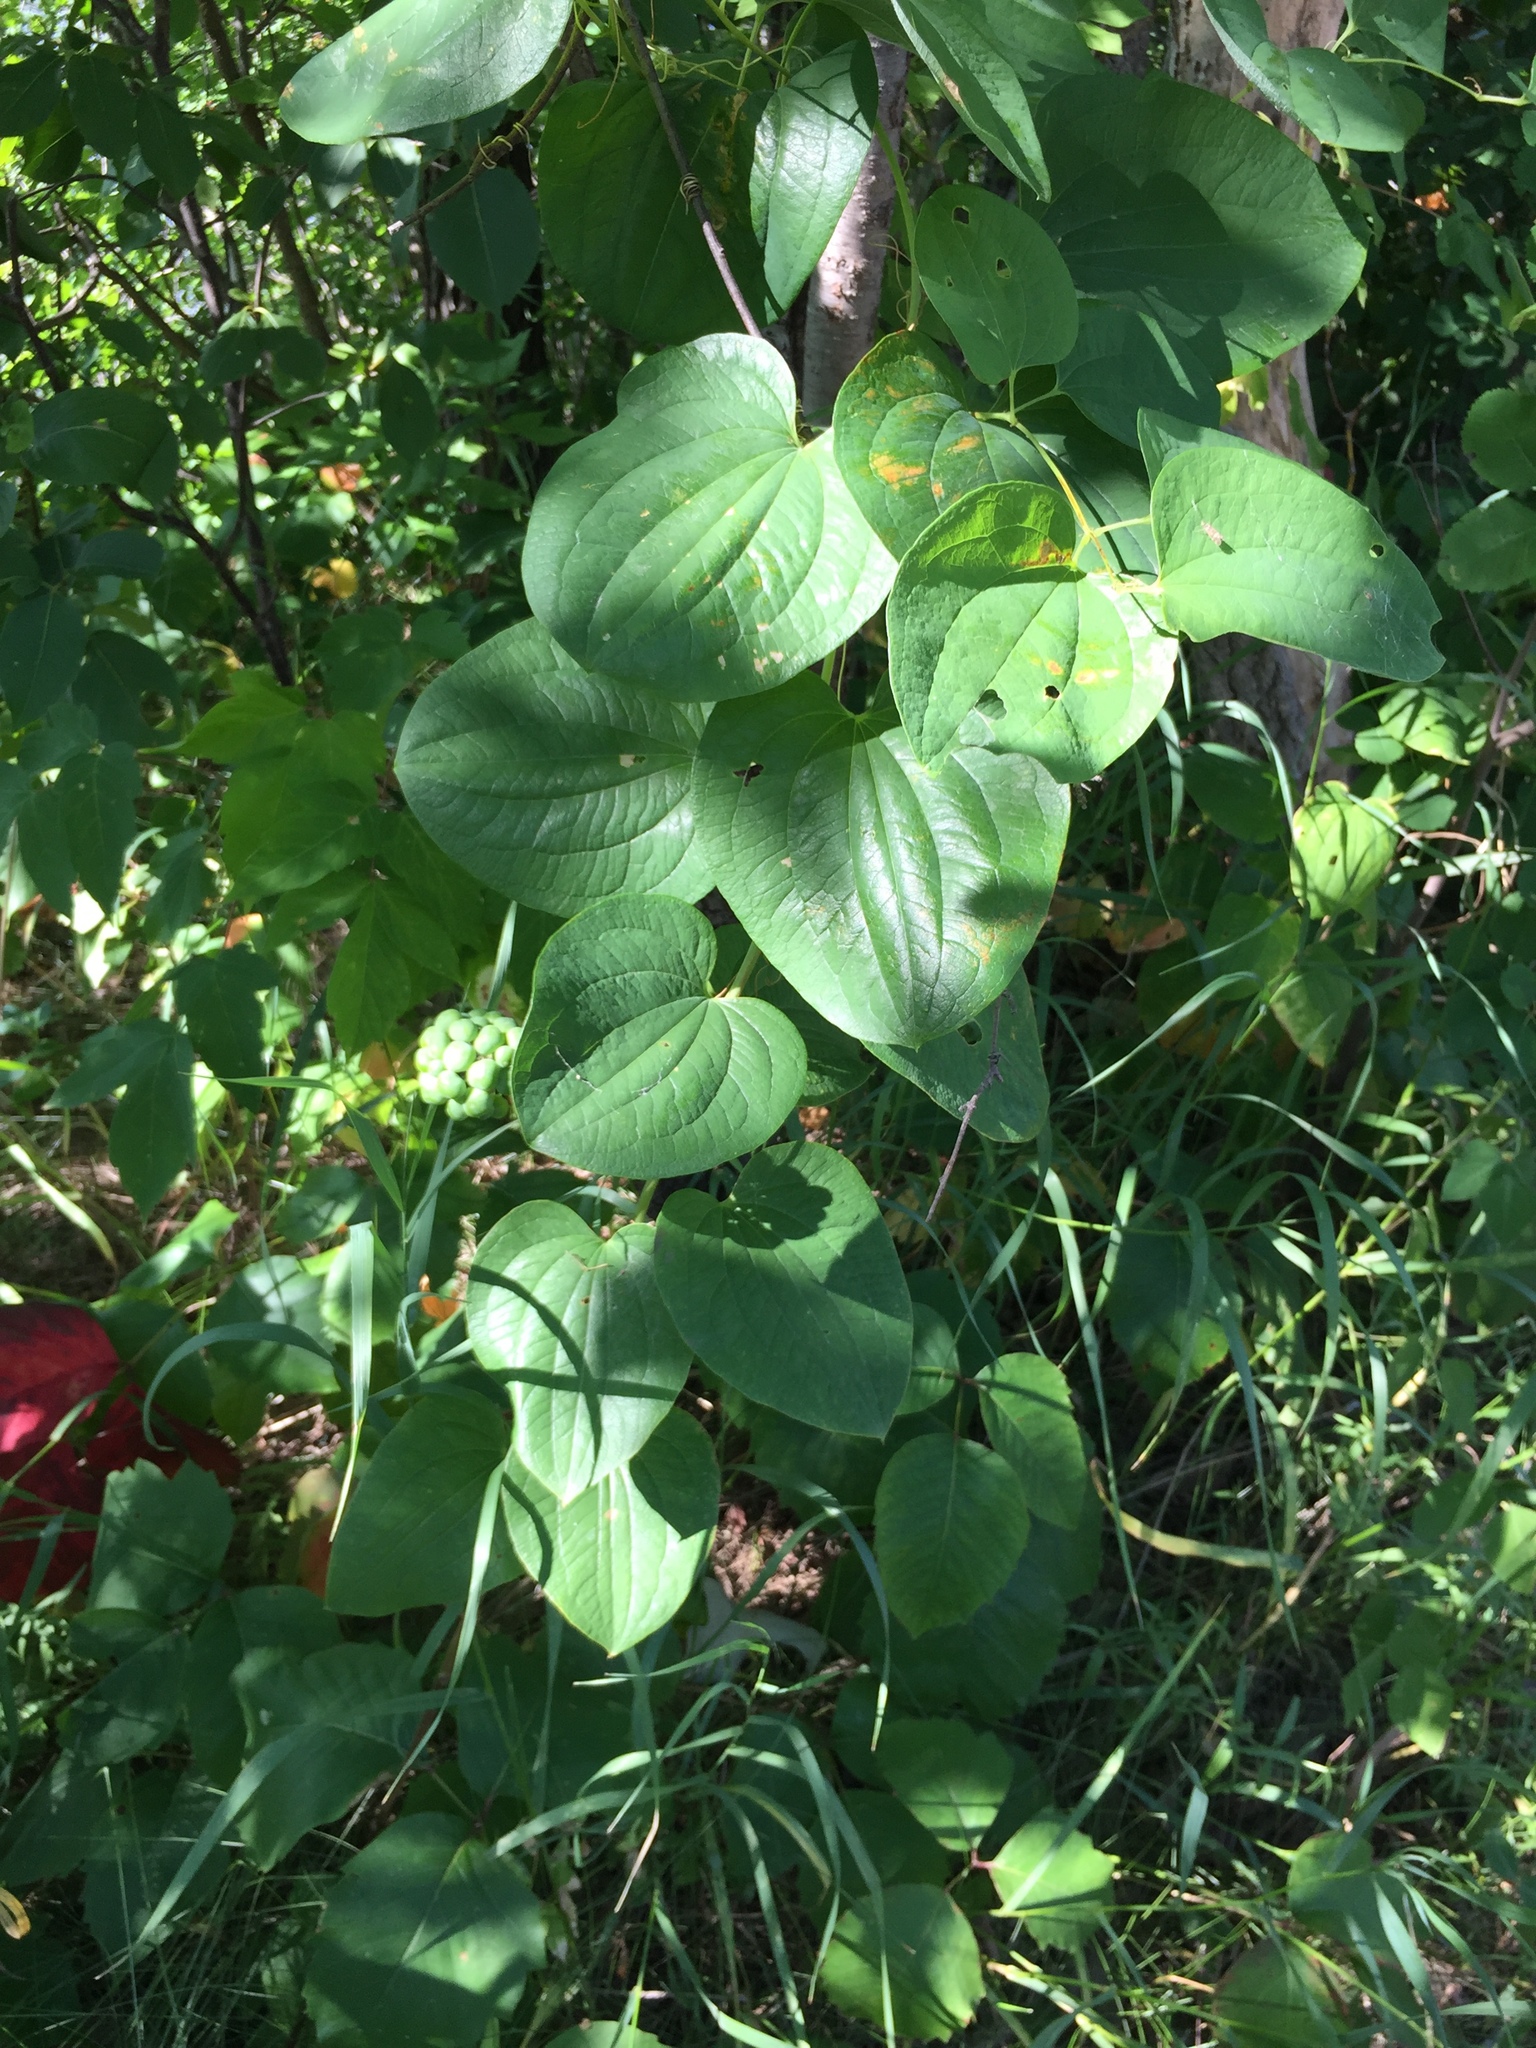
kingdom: Plantae
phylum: Tracheophyta
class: Liliopsida
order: Liliales
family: Smilacaceae
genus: Smilax
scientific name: Smilax lasioneura
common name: Blue ridge carrionflower
